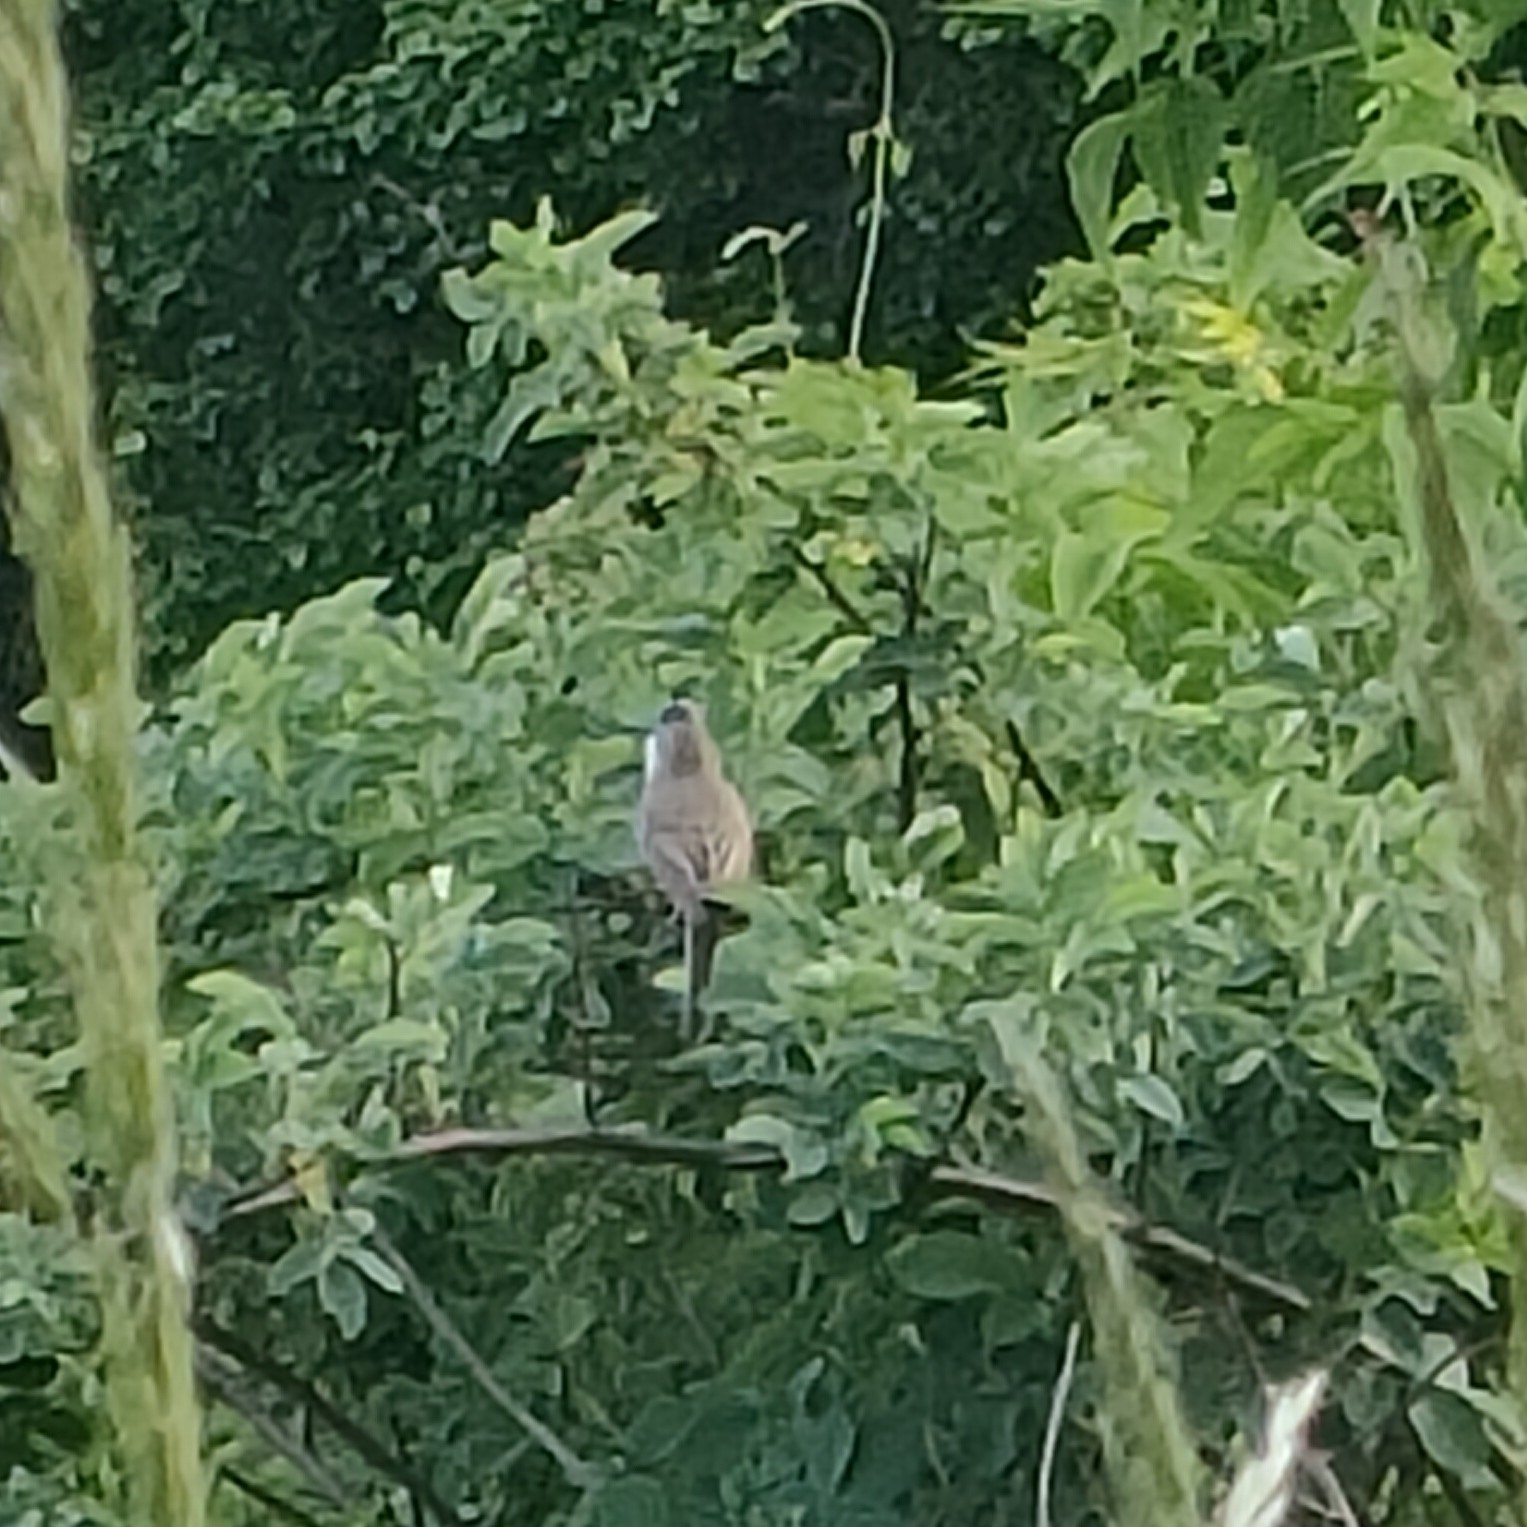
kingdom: Animalia
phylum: Chordata
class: Aves
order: Passeriformes
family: Sylviidae
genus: Sylvia
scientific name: Sylvia communis
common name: Common whitethroat
